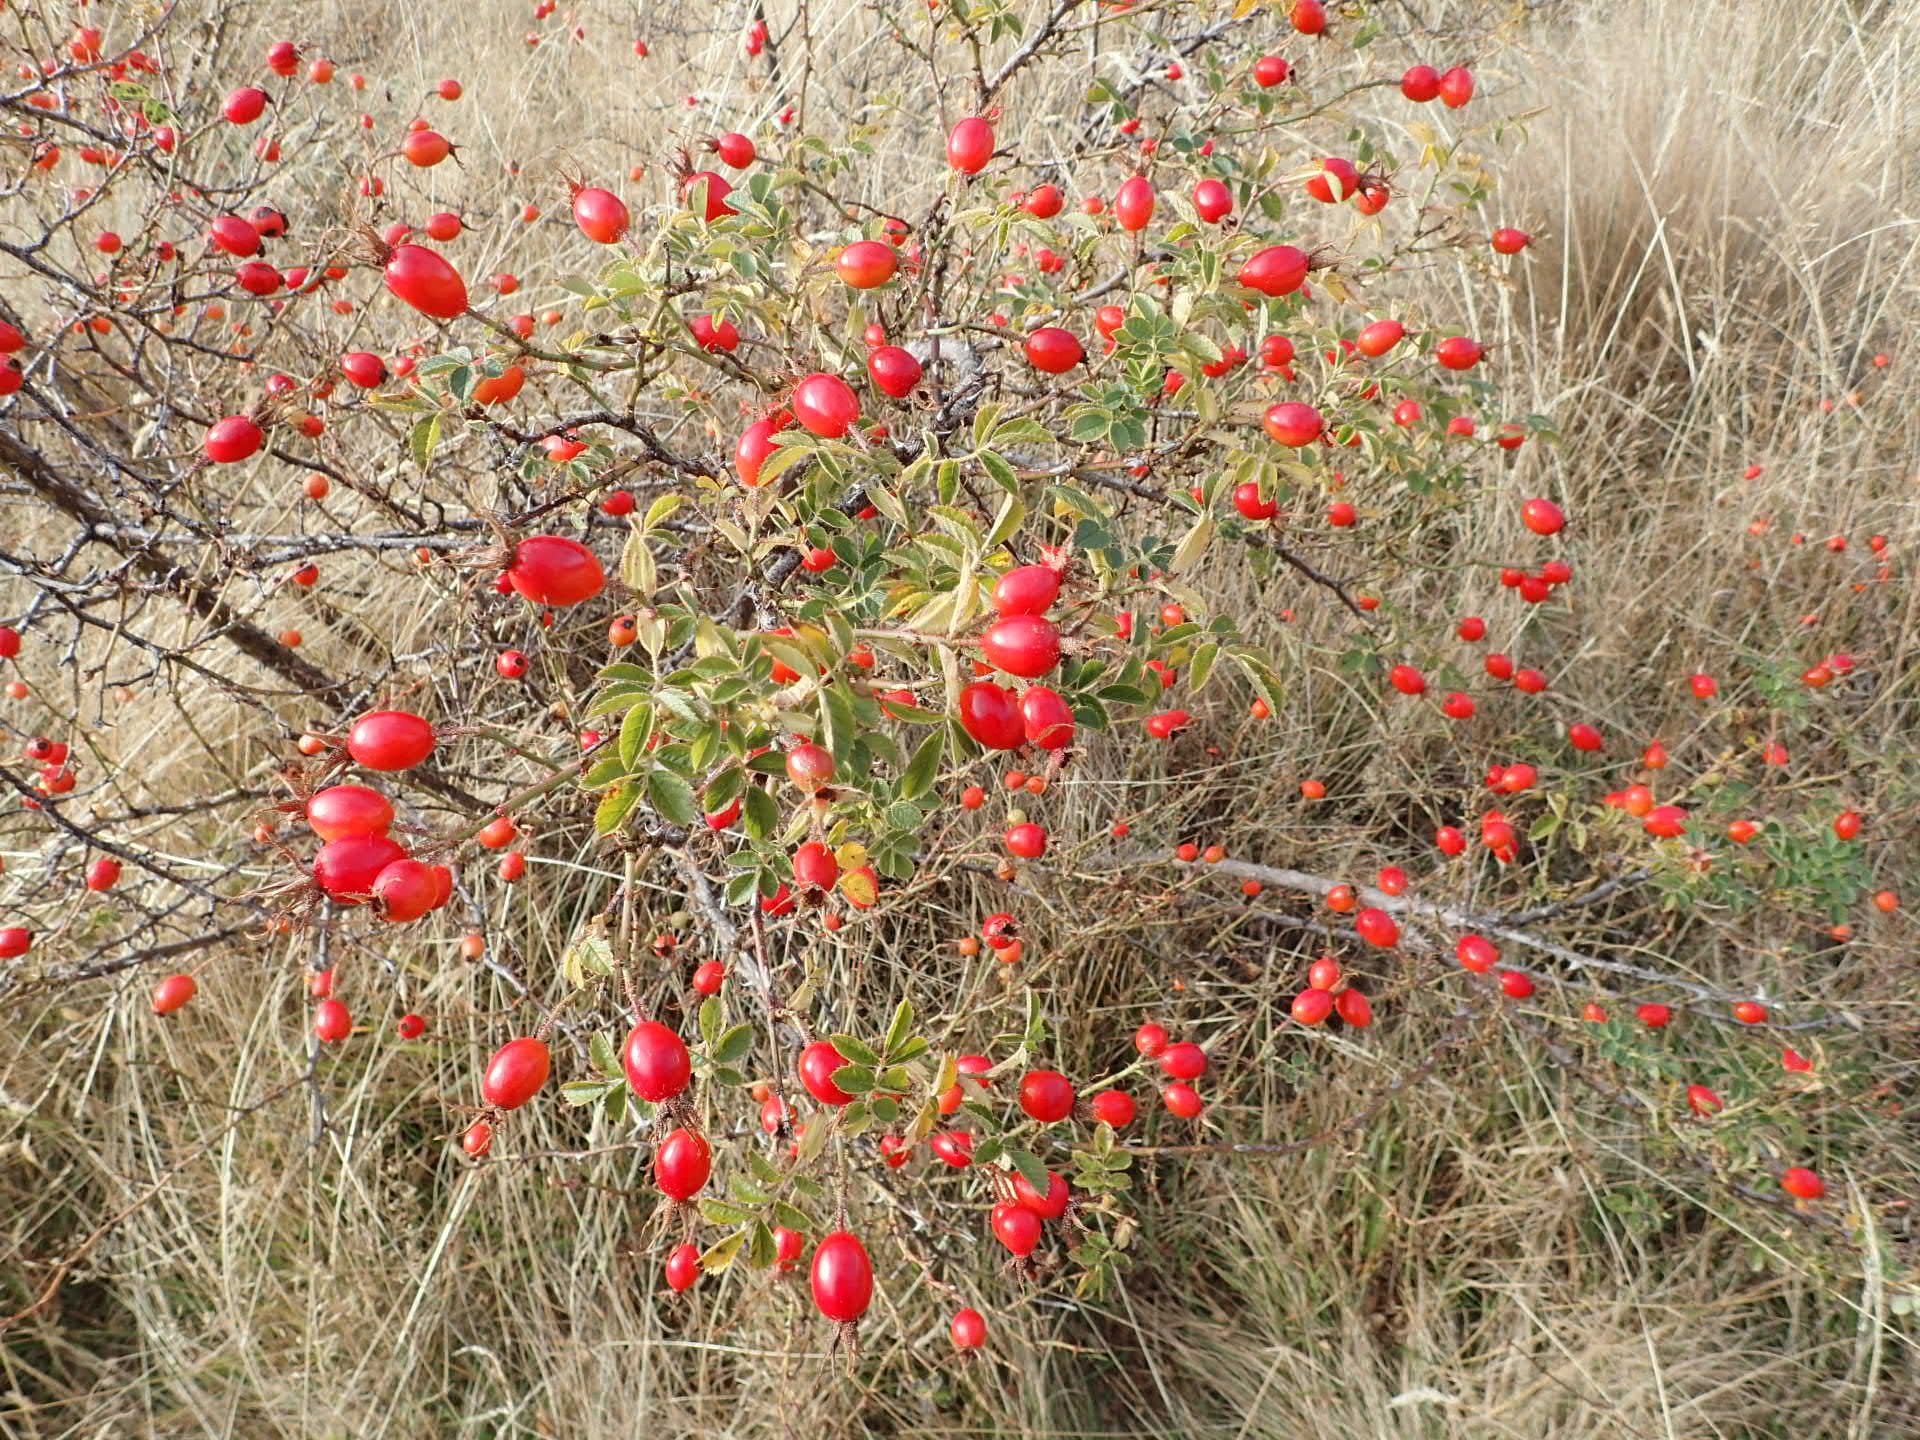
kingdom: Plantae
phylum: Tracheophyta
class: Magnoliopsida
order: Rosales
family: Rosaceae
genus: Rosa
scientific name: Rosa rubiginosa
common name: Sweet-briar
